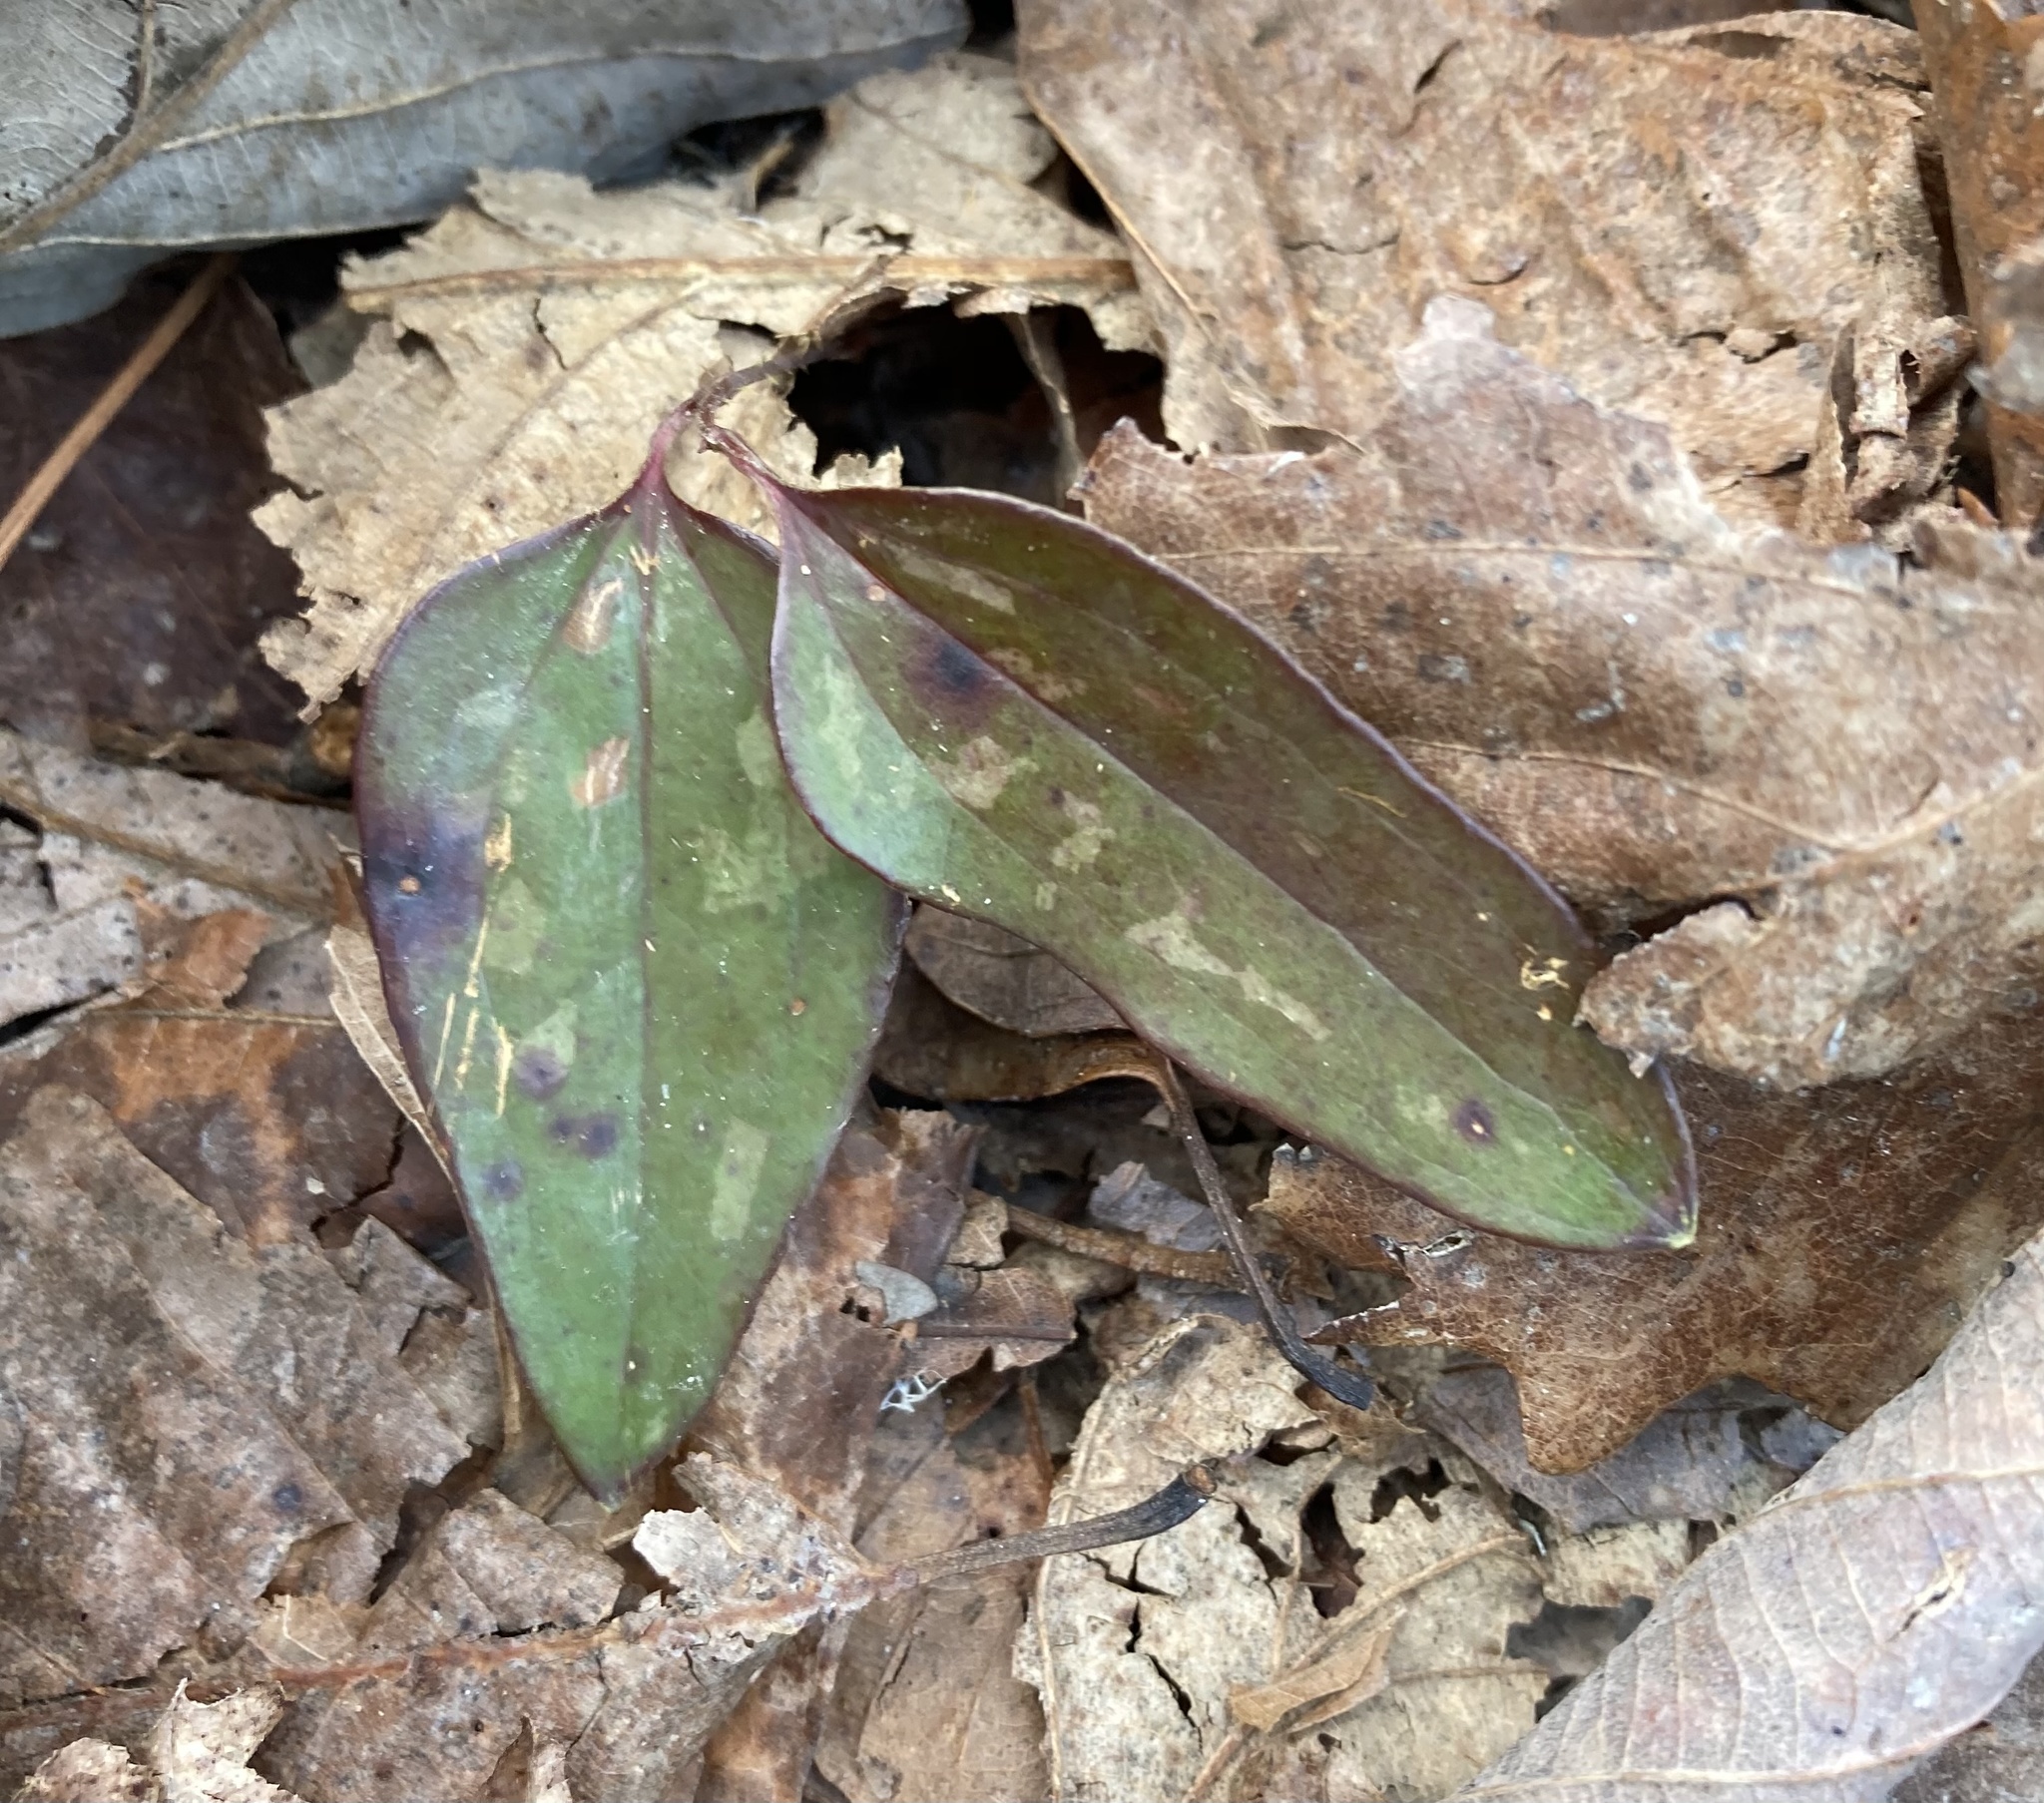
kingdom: Plantae
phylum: Tracheophyta
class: Liliopsida
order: Liliales
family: Smilacaceae
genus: Smilax
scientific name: Smilax glauca
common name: Cat greenbrier
